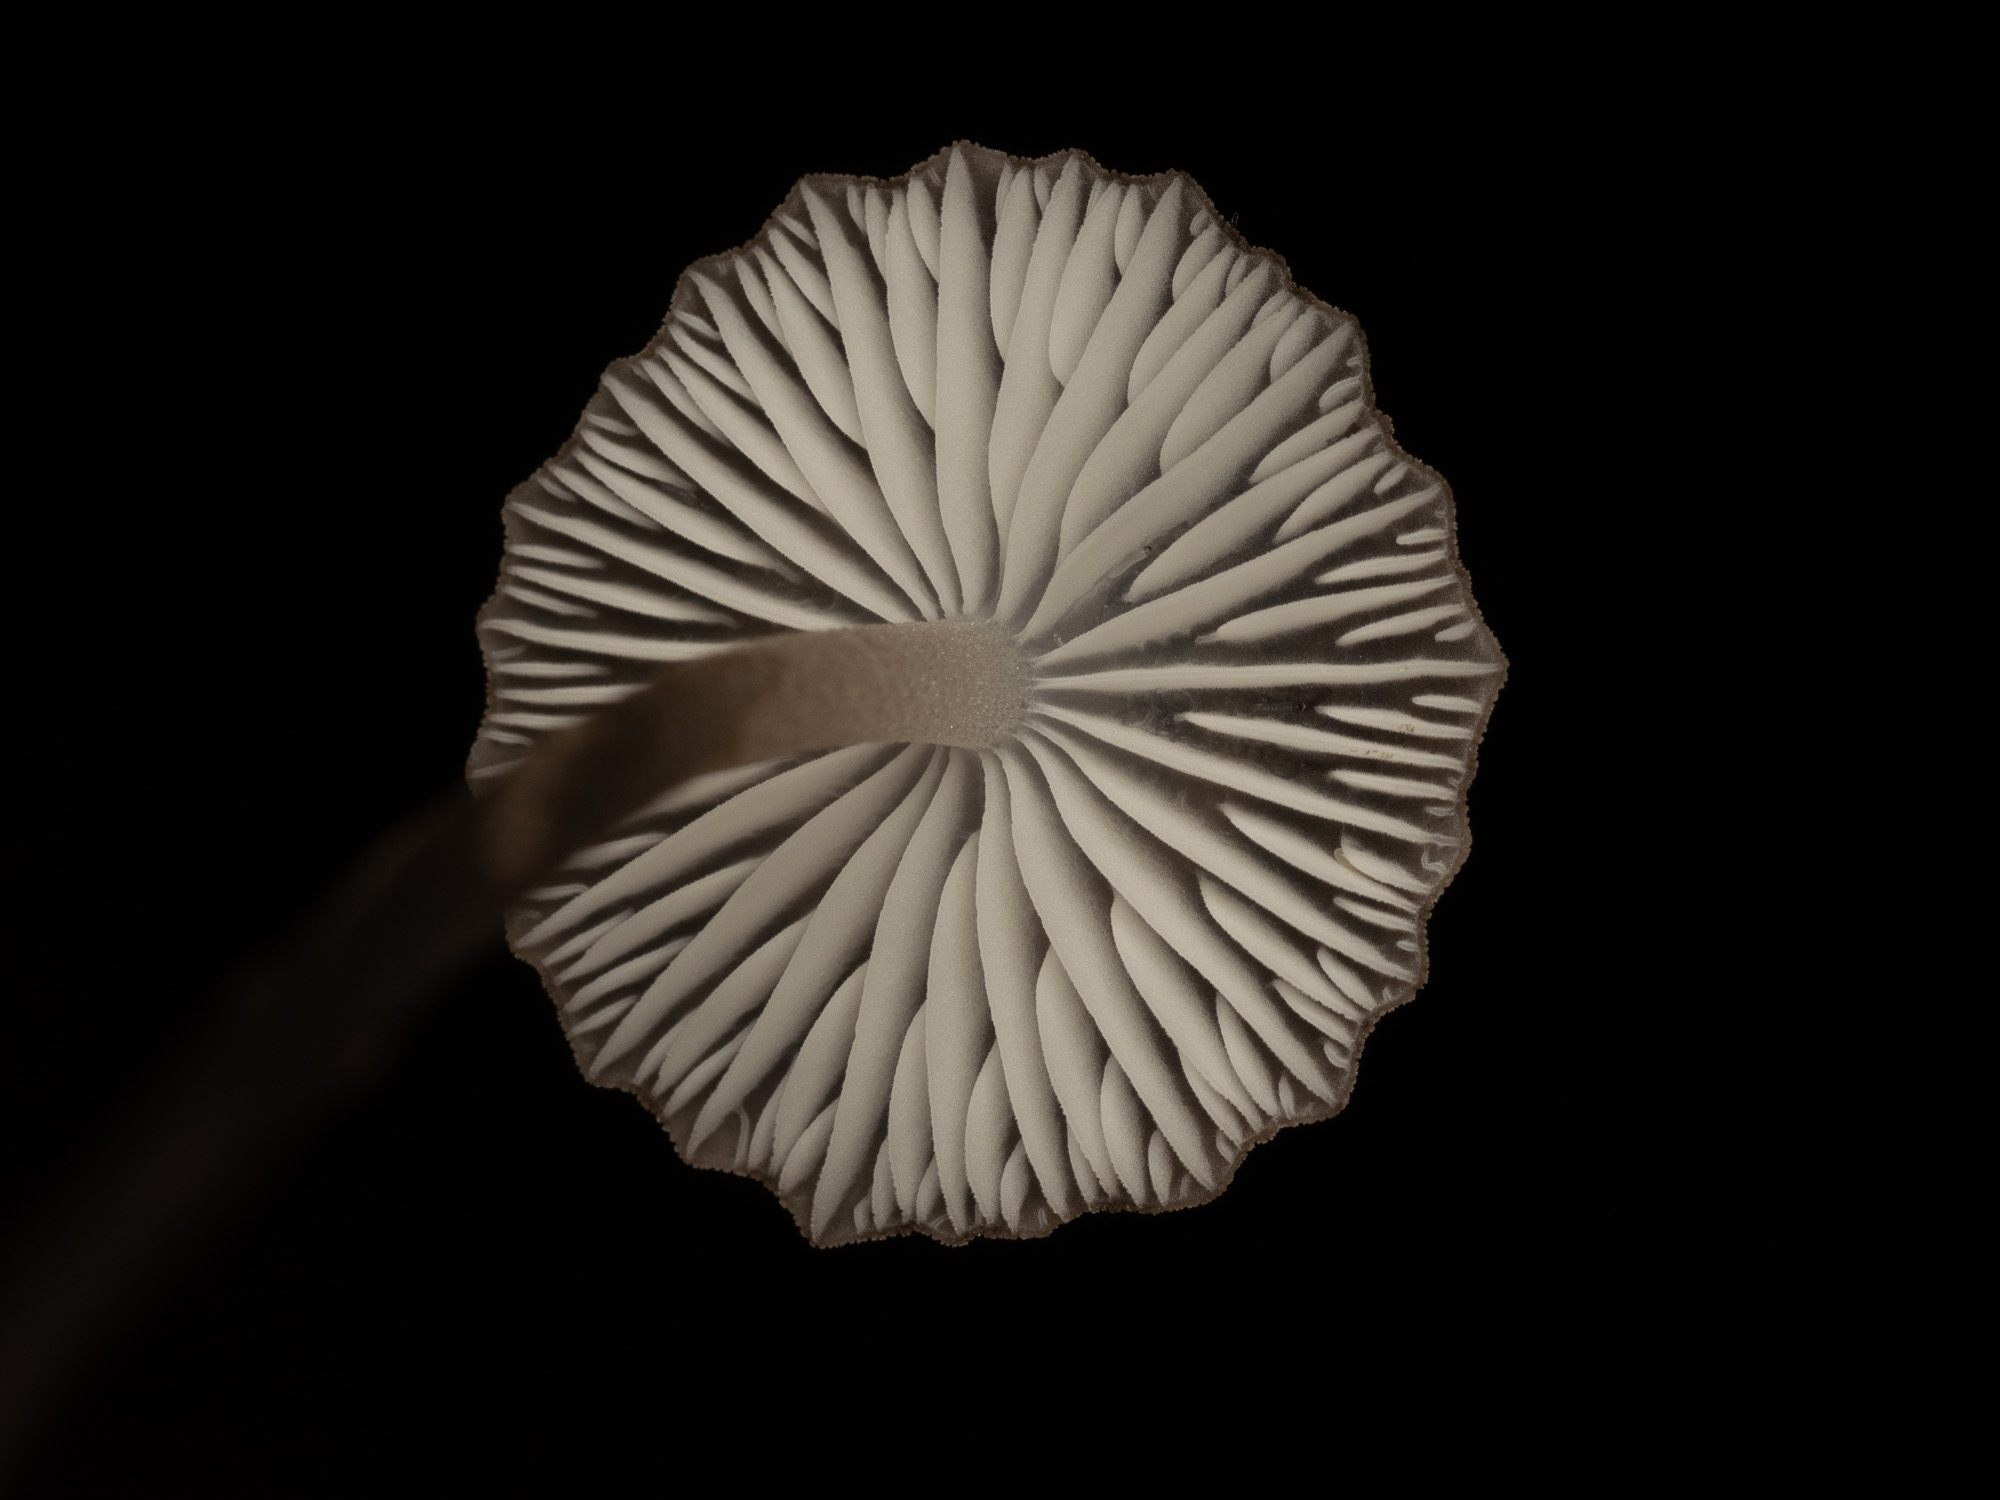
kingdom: Fungi
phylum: Basidiomycota
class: Agaricomycetes
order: Agaricales
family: Porotheleaceae
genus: Pseudohydropus
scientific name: Pseudohydropus parafunebris
